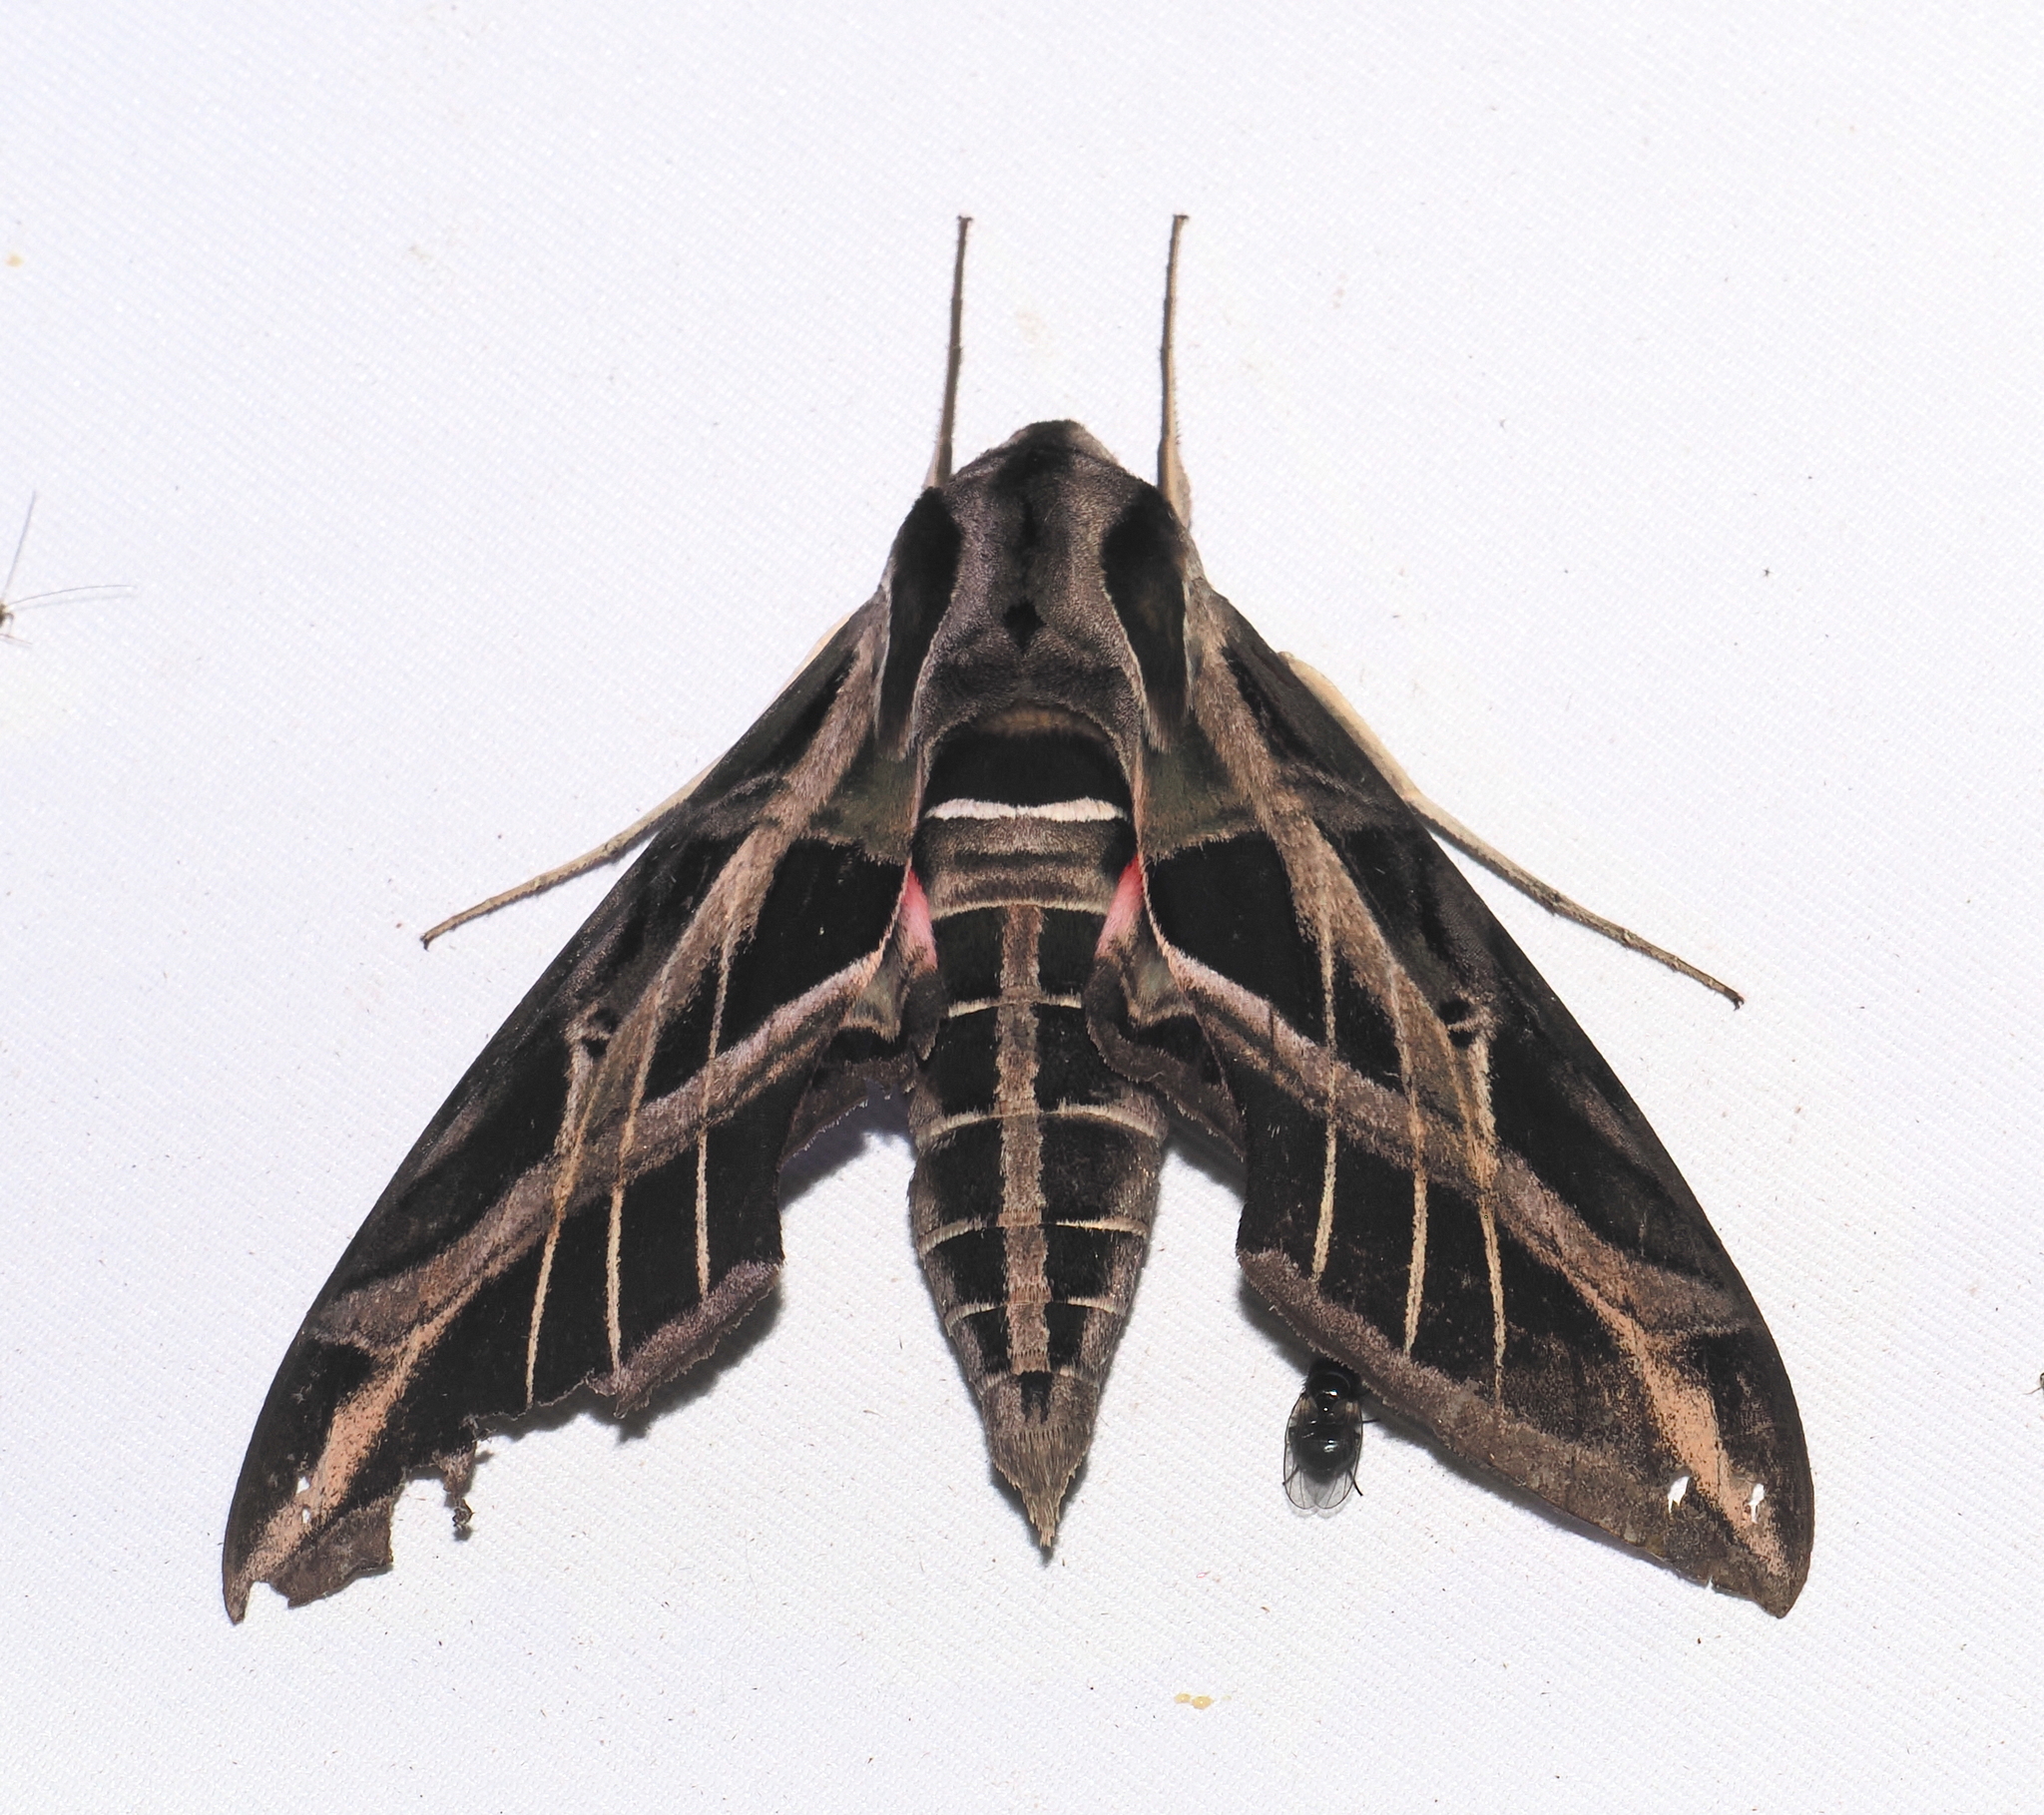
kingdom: Animalia
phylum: Arthropoda
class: Insecta
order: Lepidoptera
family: Sphingidae
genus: Eumorpha
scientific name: Eumorpha vitis
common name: Vine sphinx
